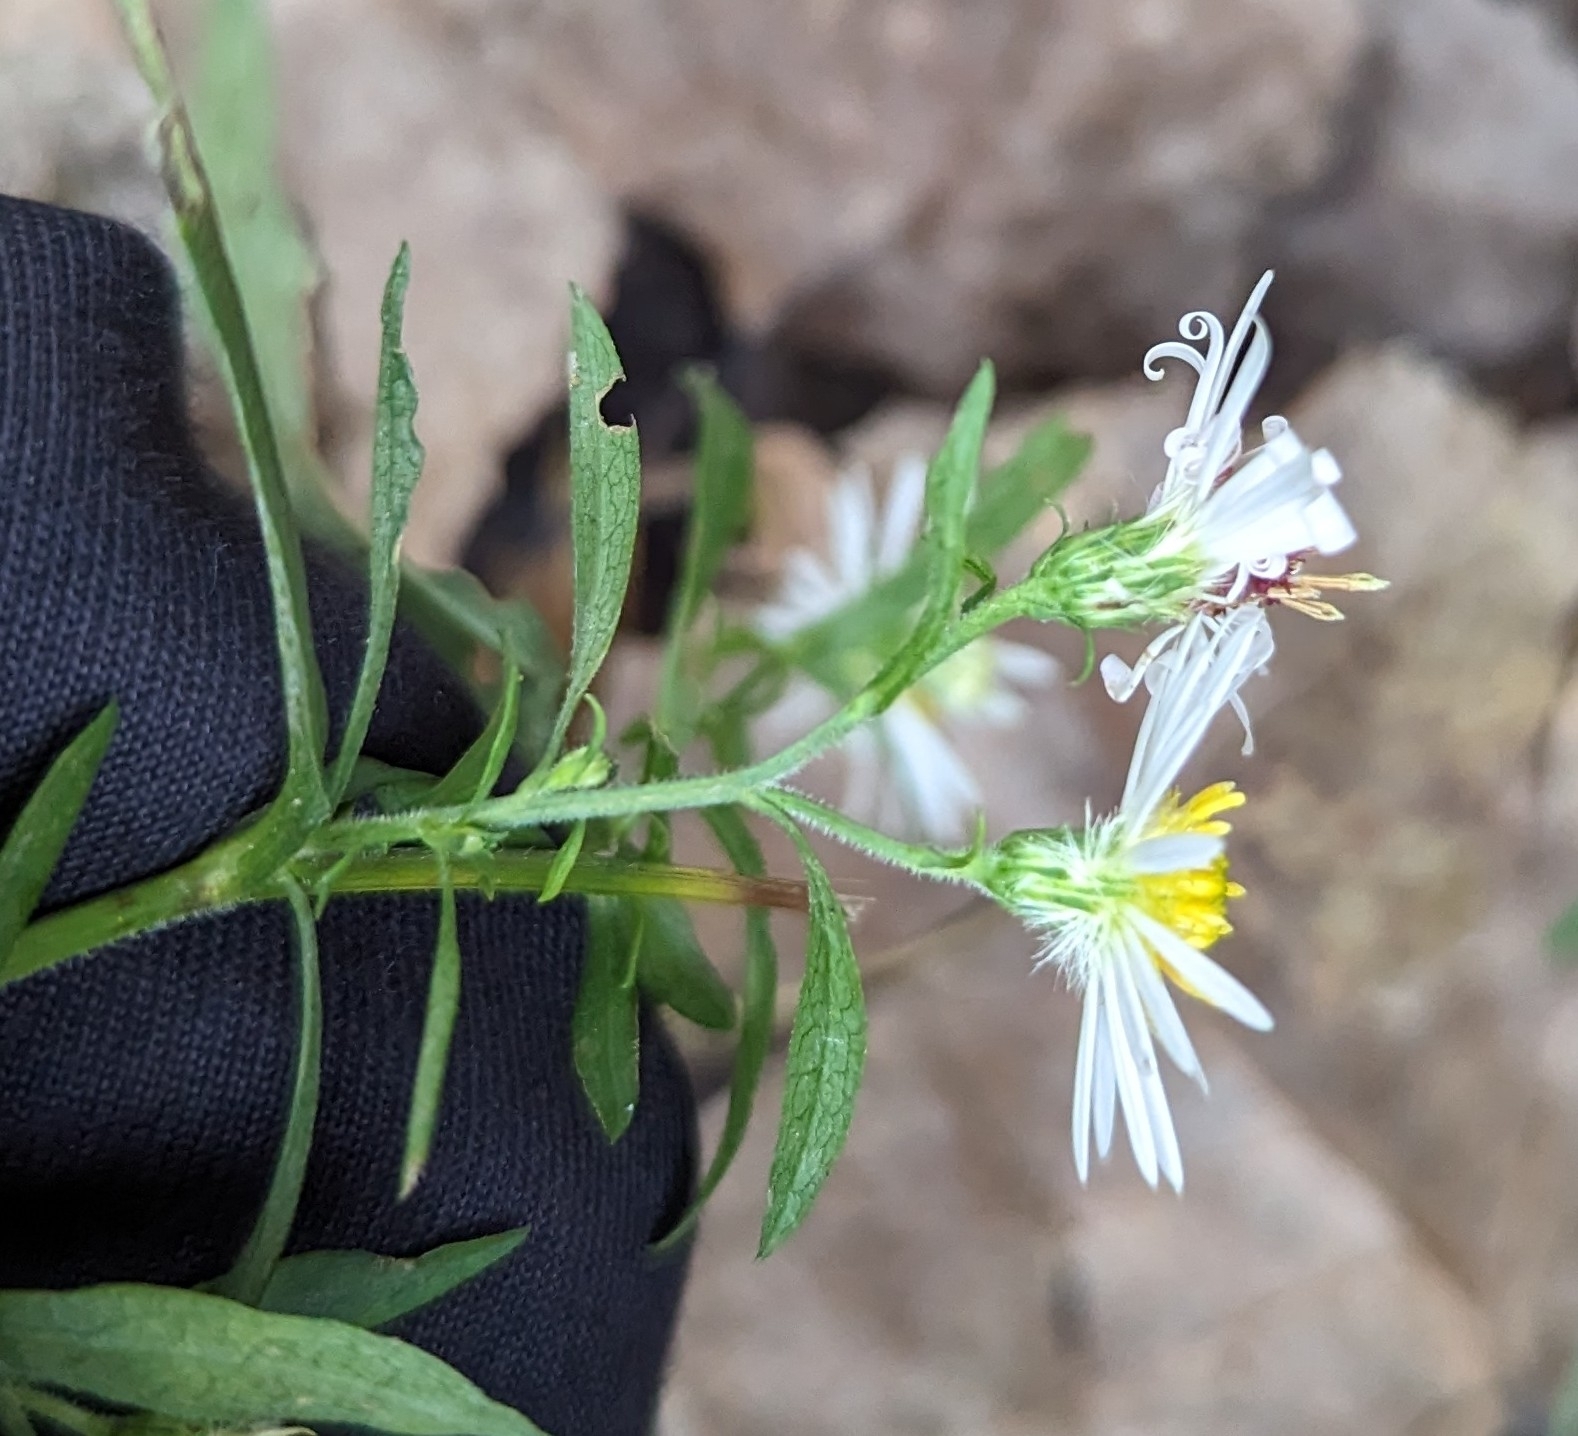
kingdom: Plantae
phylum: Tracheophyta
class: Magnoliopsida
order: Asterales
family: Asteraceae
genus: Symphyotrichum
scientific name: Symphyotrichum lanceolatum
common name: Panicled aster
